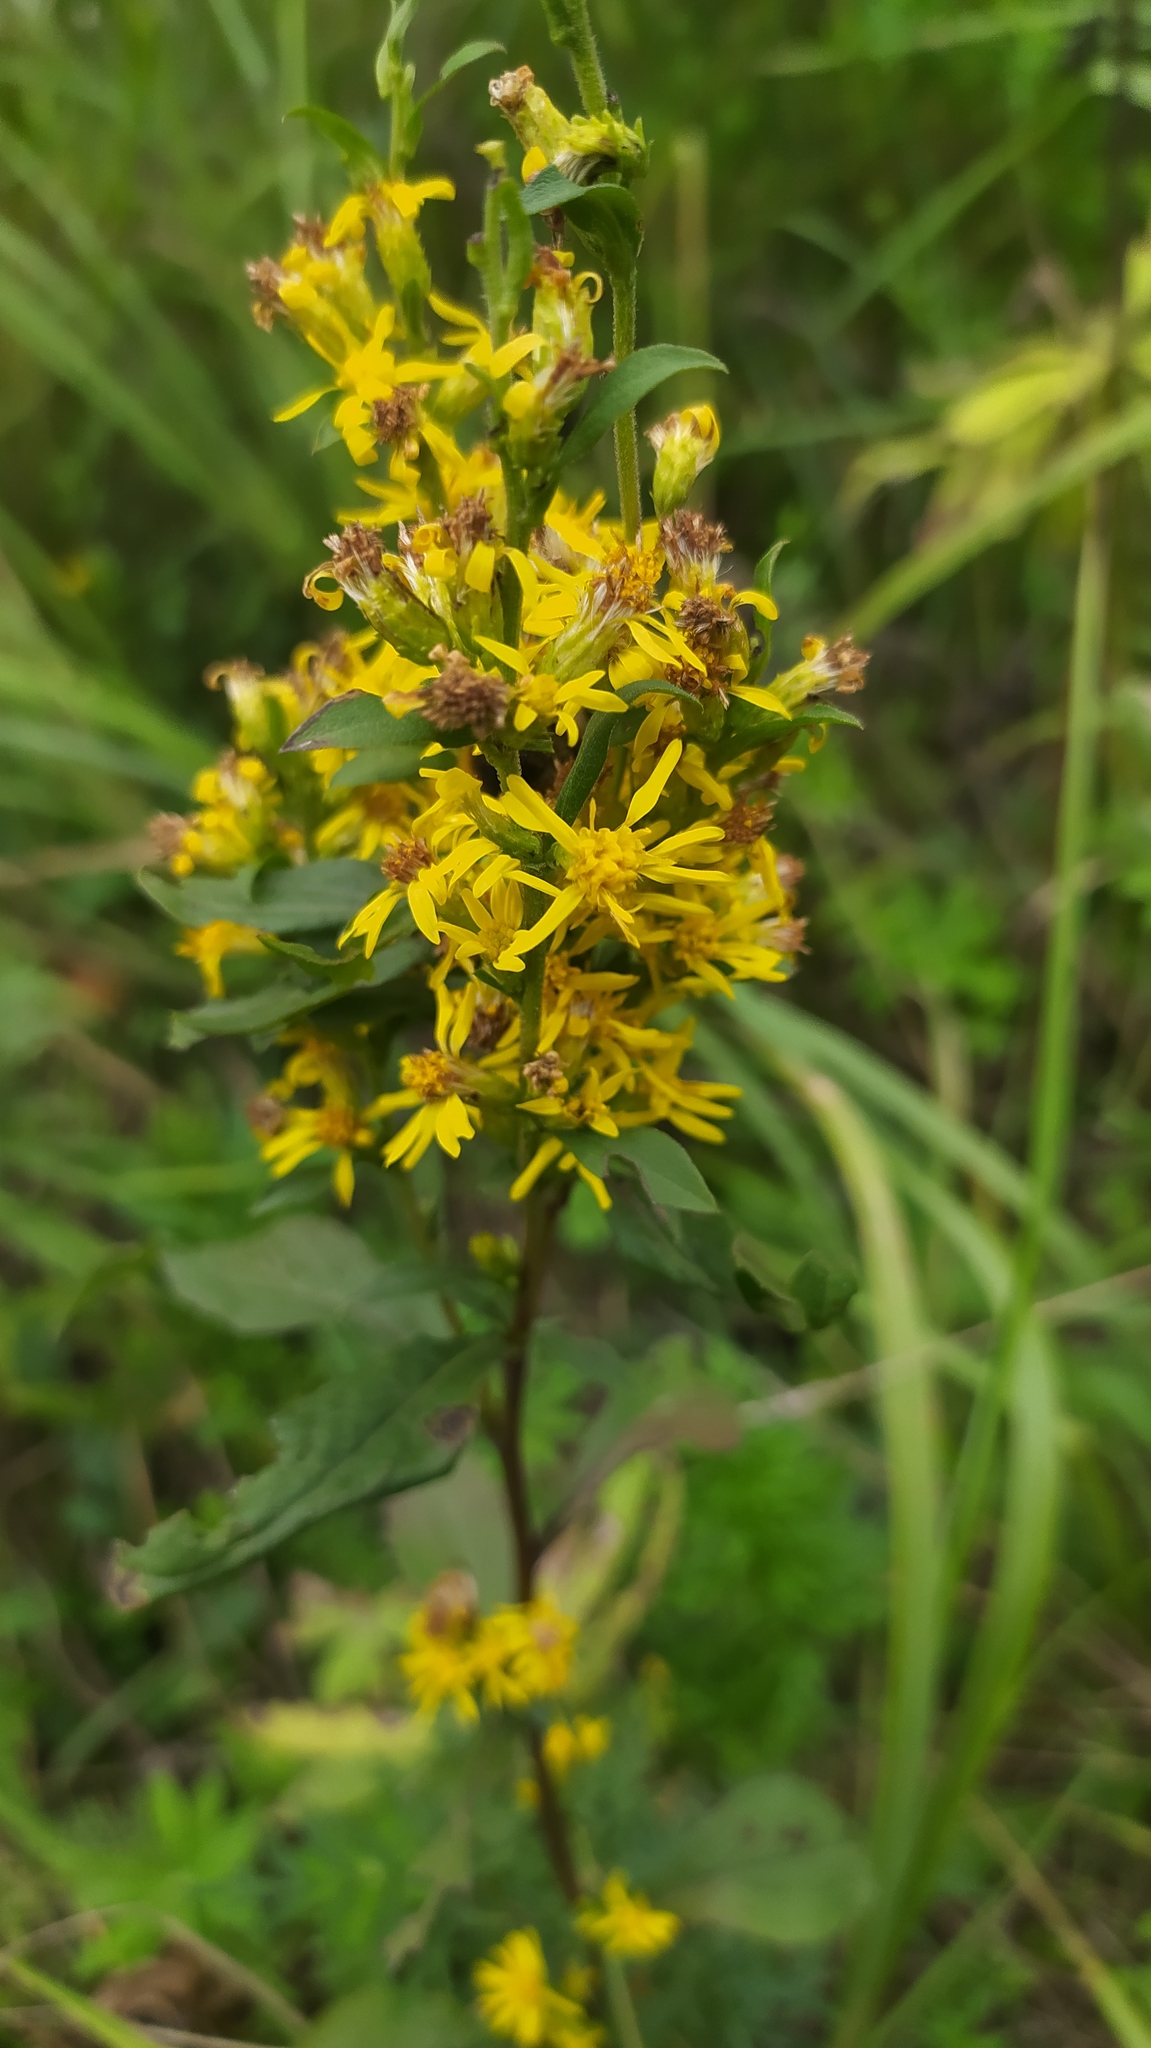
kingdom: Plantae
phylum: Tracheophyta
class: Magnoliopsida
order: Asterales
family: Asteraceae
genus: Solidago
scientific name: Solidago virgaurea
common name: Goldenrod
